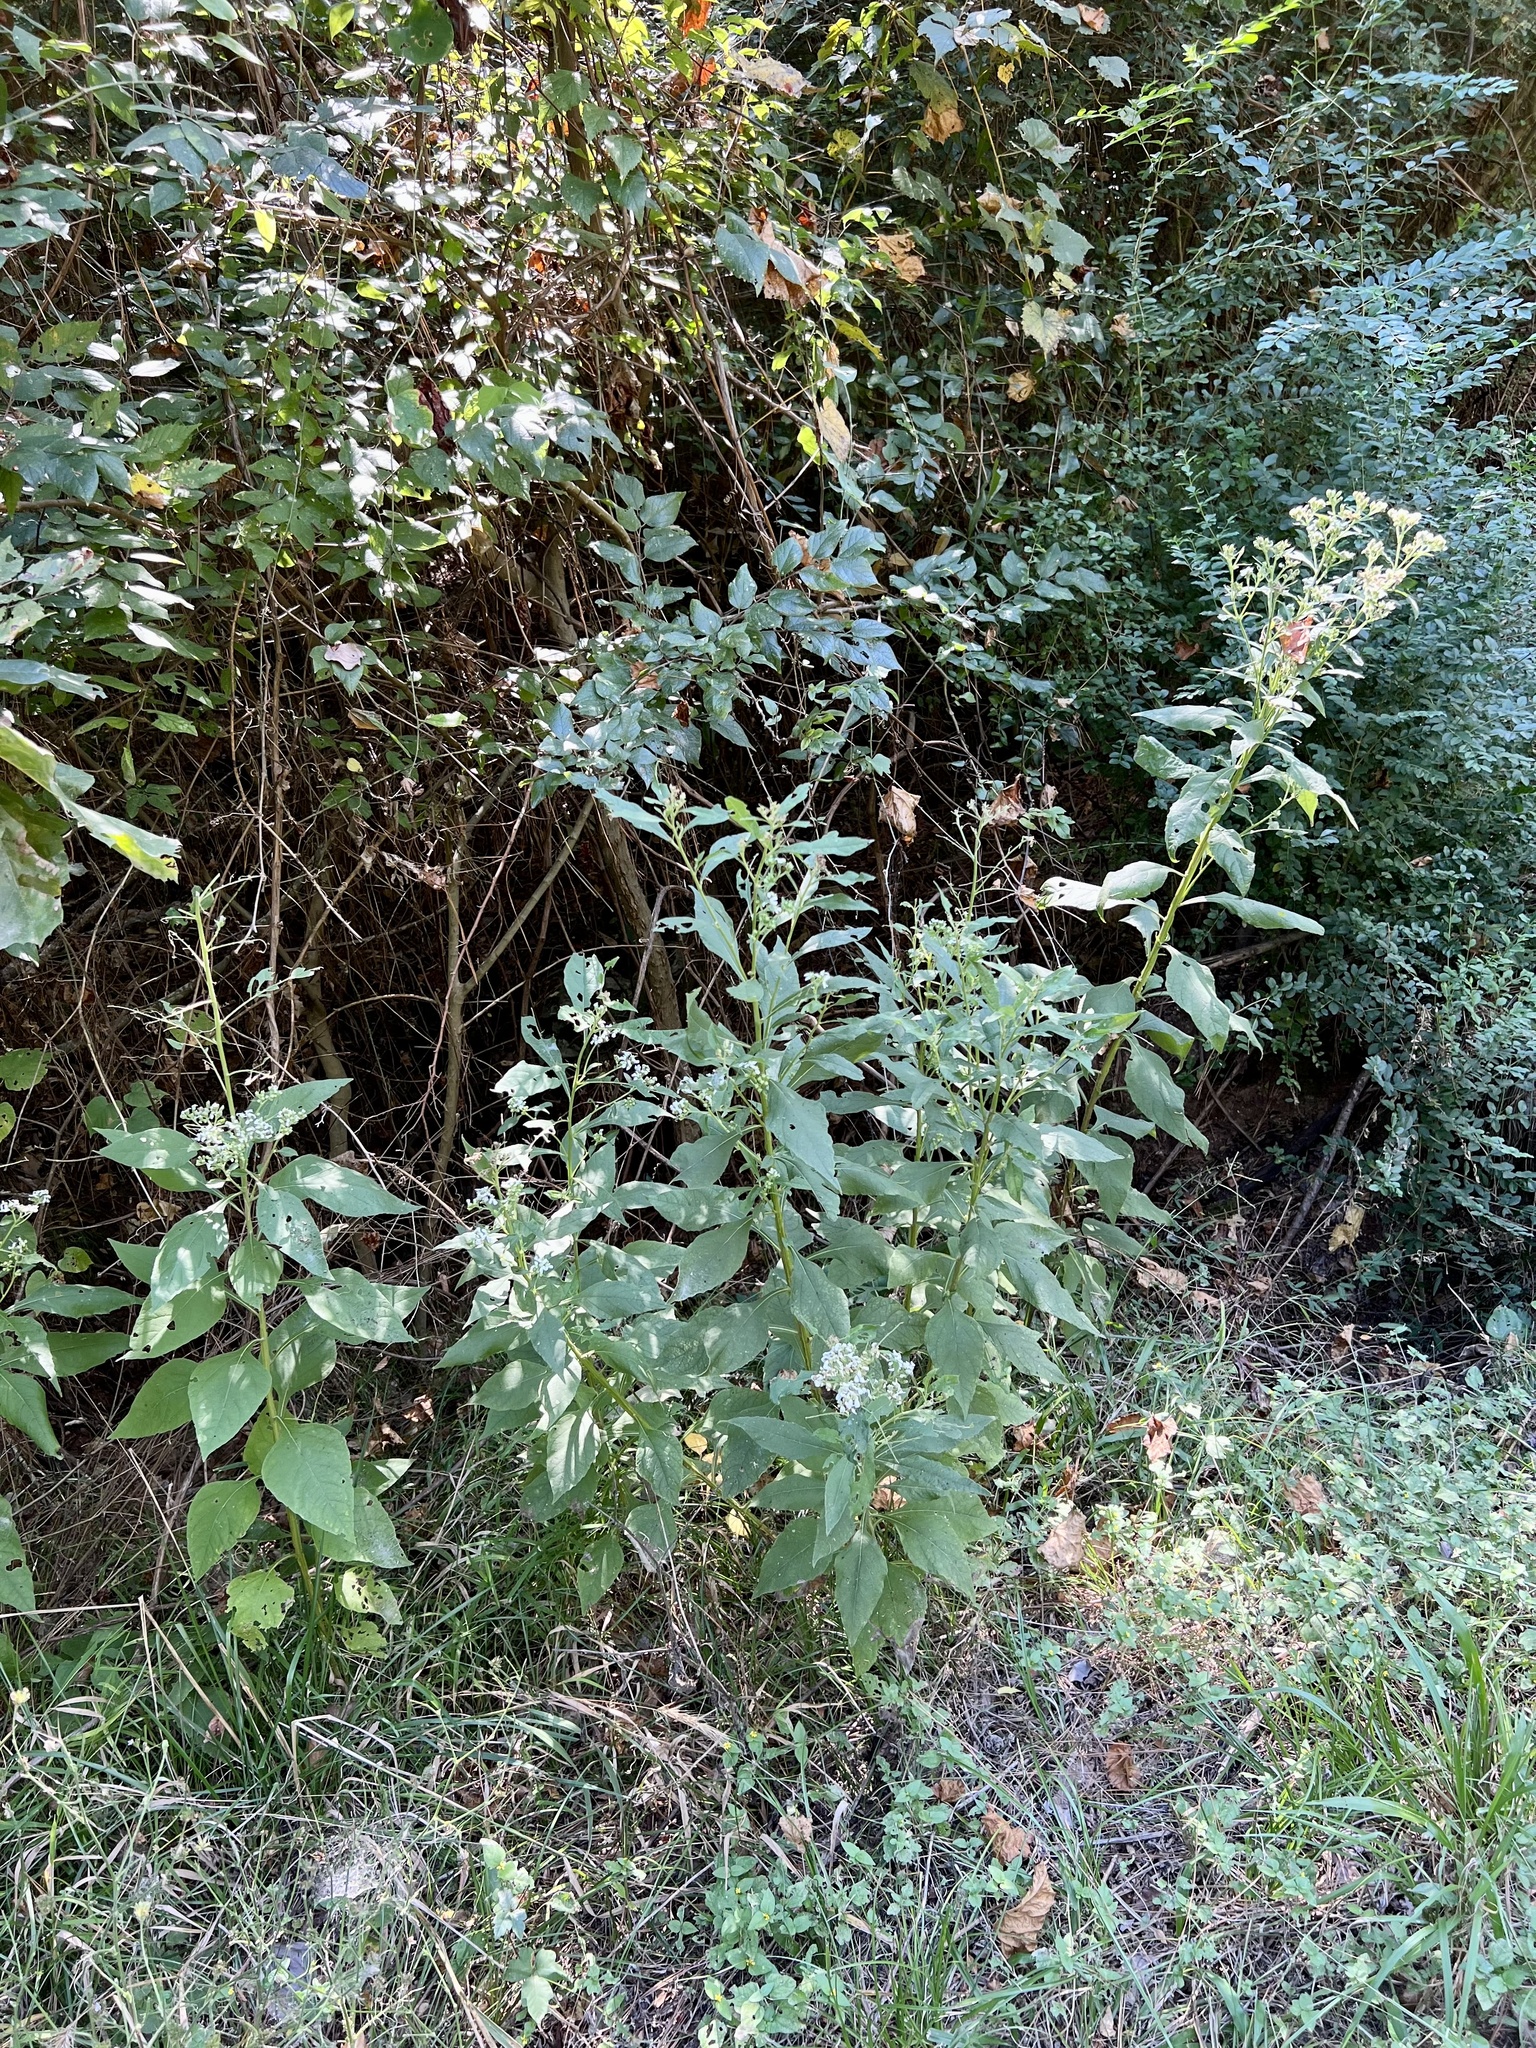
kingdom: Plantae
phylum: Tracheophyta
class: Magnoliopsida
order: Asterales
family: Asteraceae
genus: Verbesina
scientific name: Verbesina virginica
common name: Frostweed
